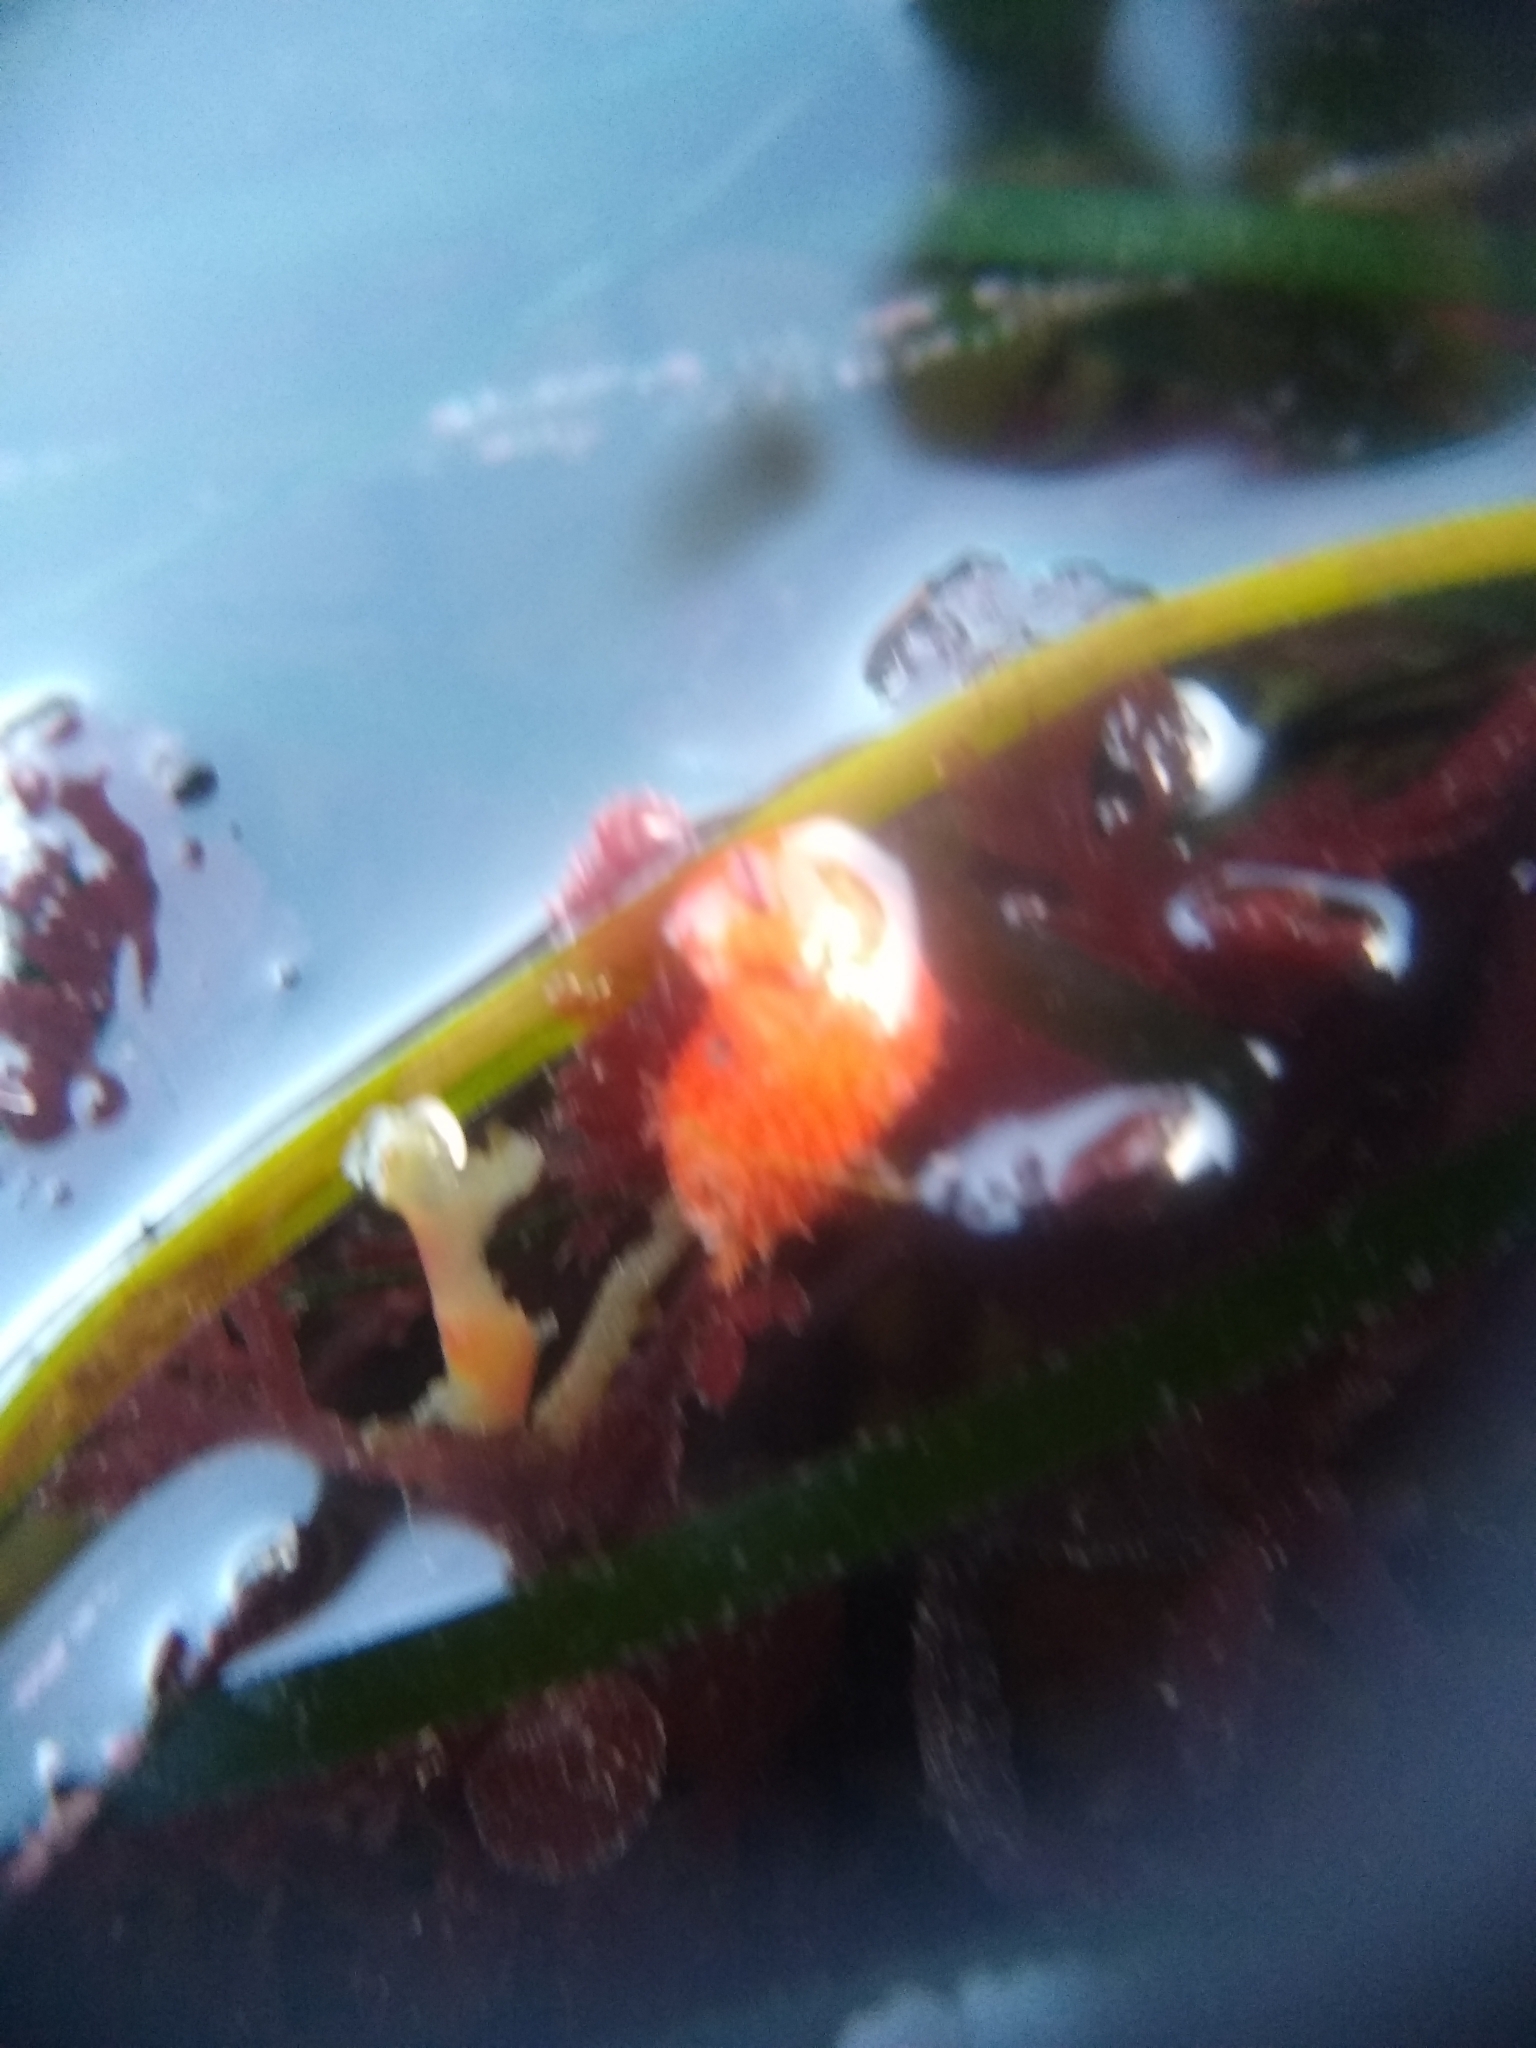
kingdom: Animalia
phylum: Echinodermata
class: Holothuroidea
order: Dendrochirotida
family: Psolidae
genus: Lissothuria
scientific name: Lissothuria nutriens
